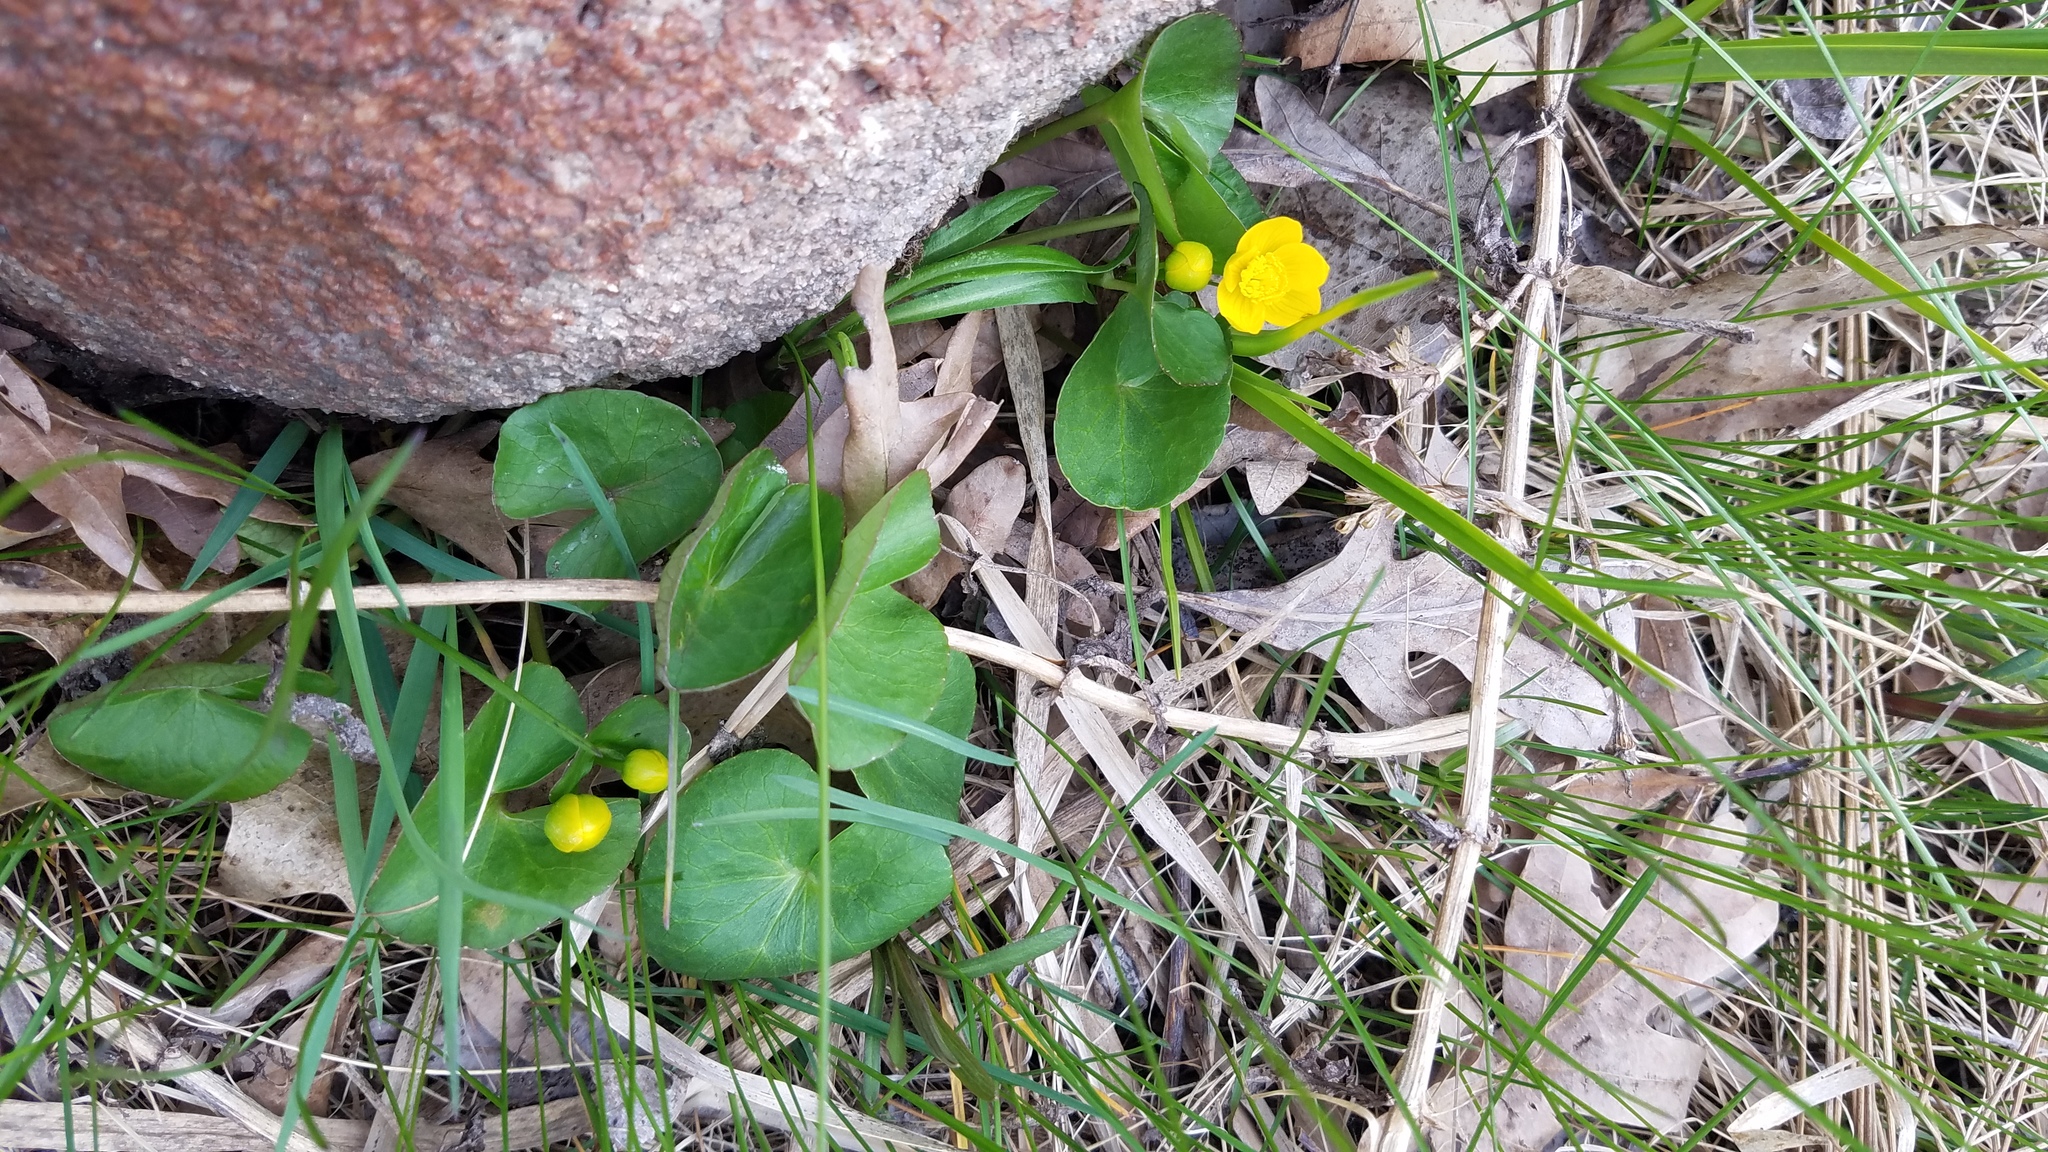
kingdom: Plantae
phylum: Tracheophyta
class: Magnoliopsida
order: Ranunculales
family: Ranunculaceae
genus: Caltha
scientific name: Caltha palustris
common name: Marsh marigold
